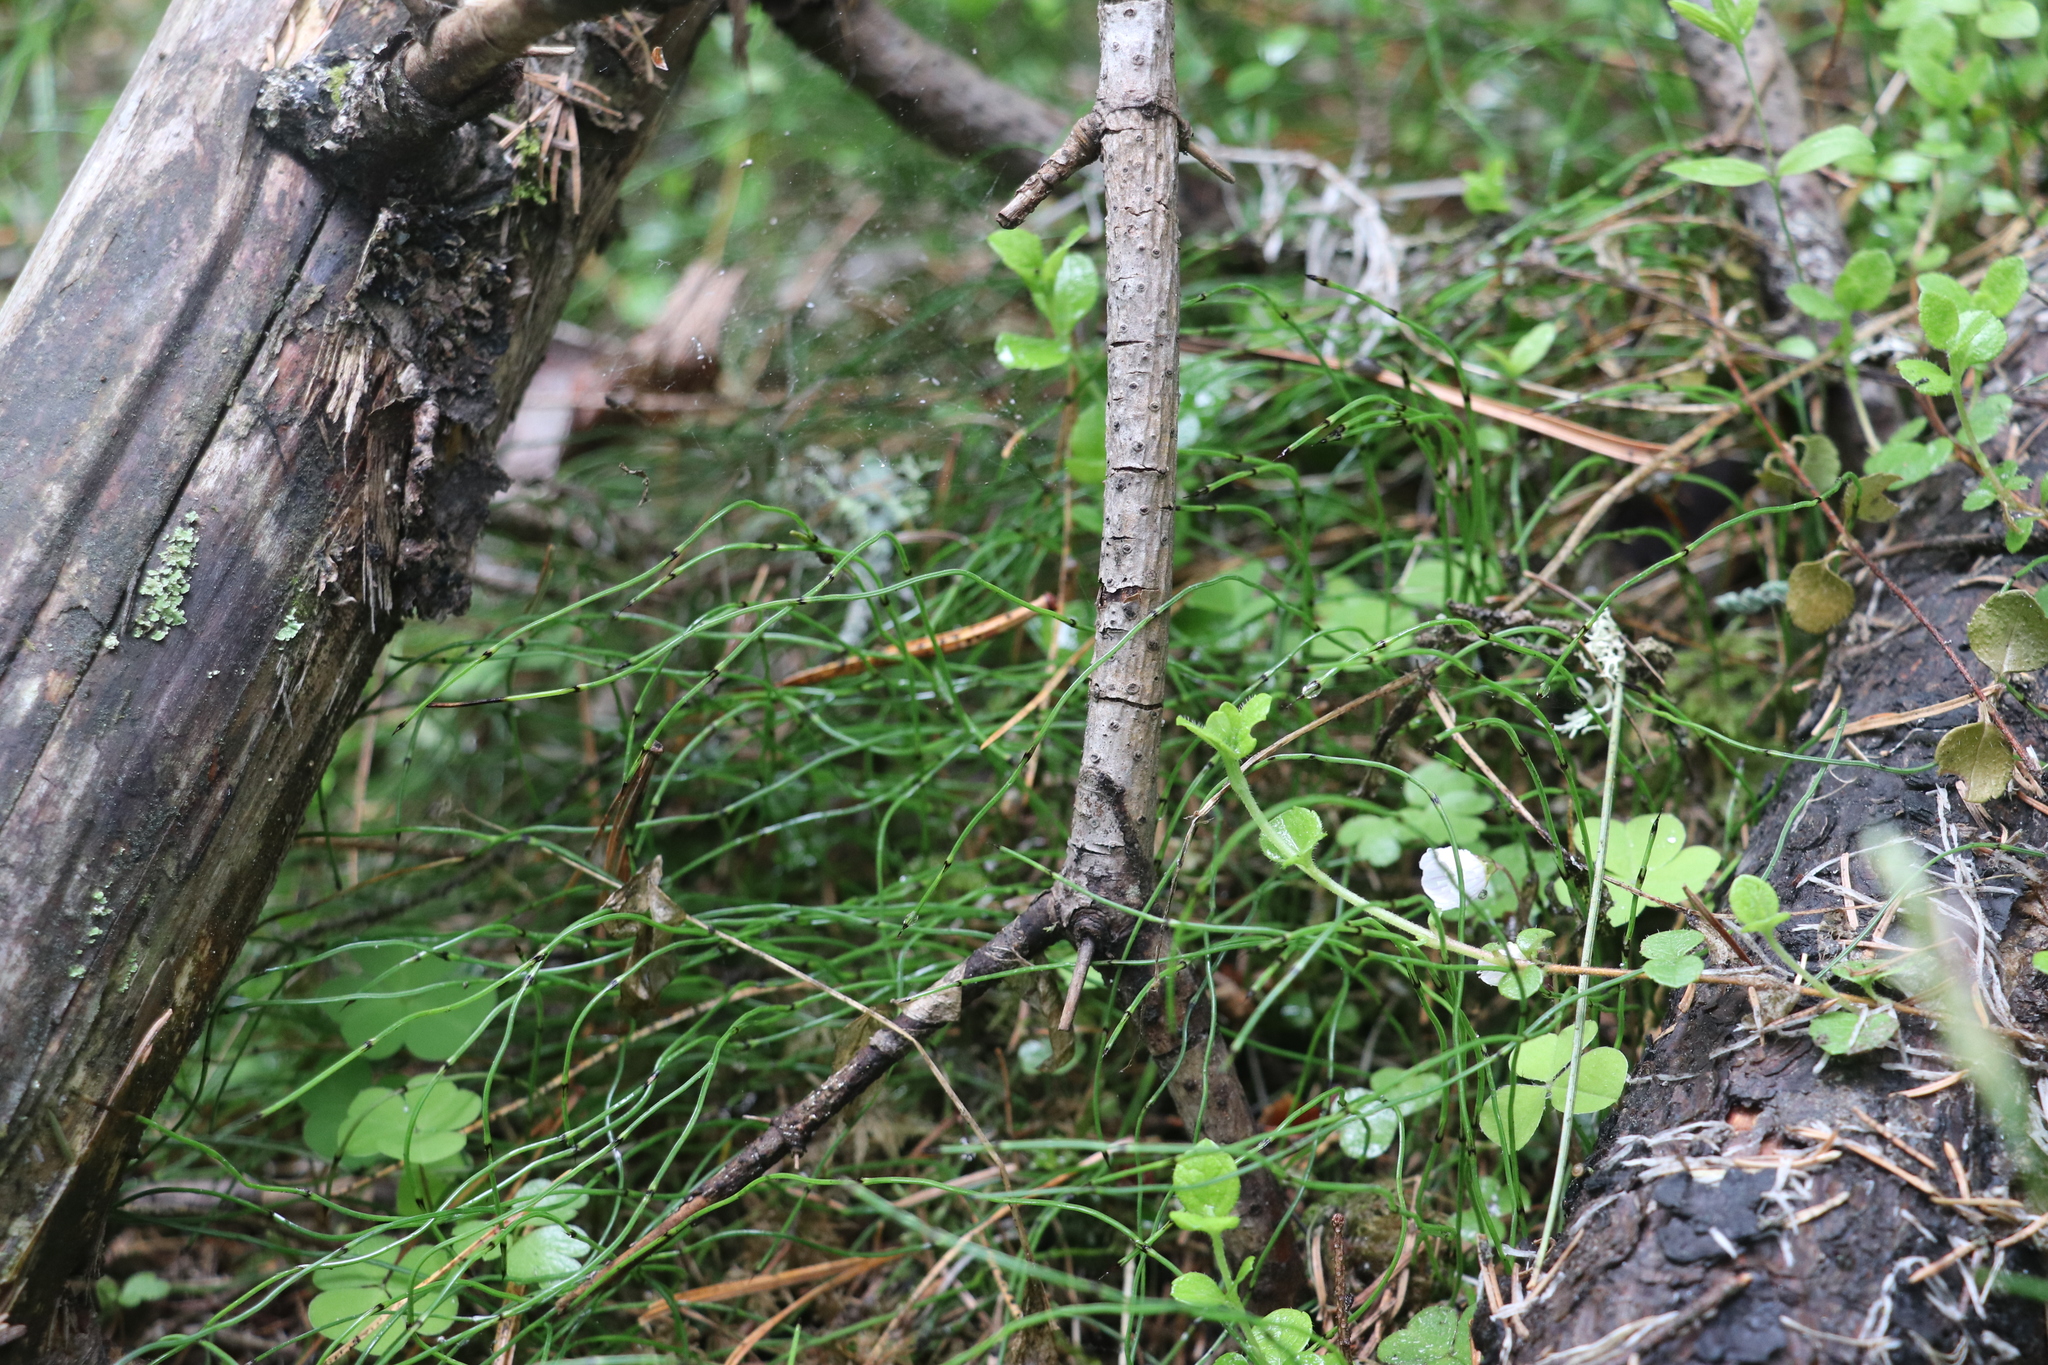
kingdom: Plantae
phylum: Tracheophyta
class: Polypodiopsida
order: Equisetales
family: Equisetaceae
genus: Equisetum
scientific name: Equisetum scirpoides
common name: Delicate horsetail
